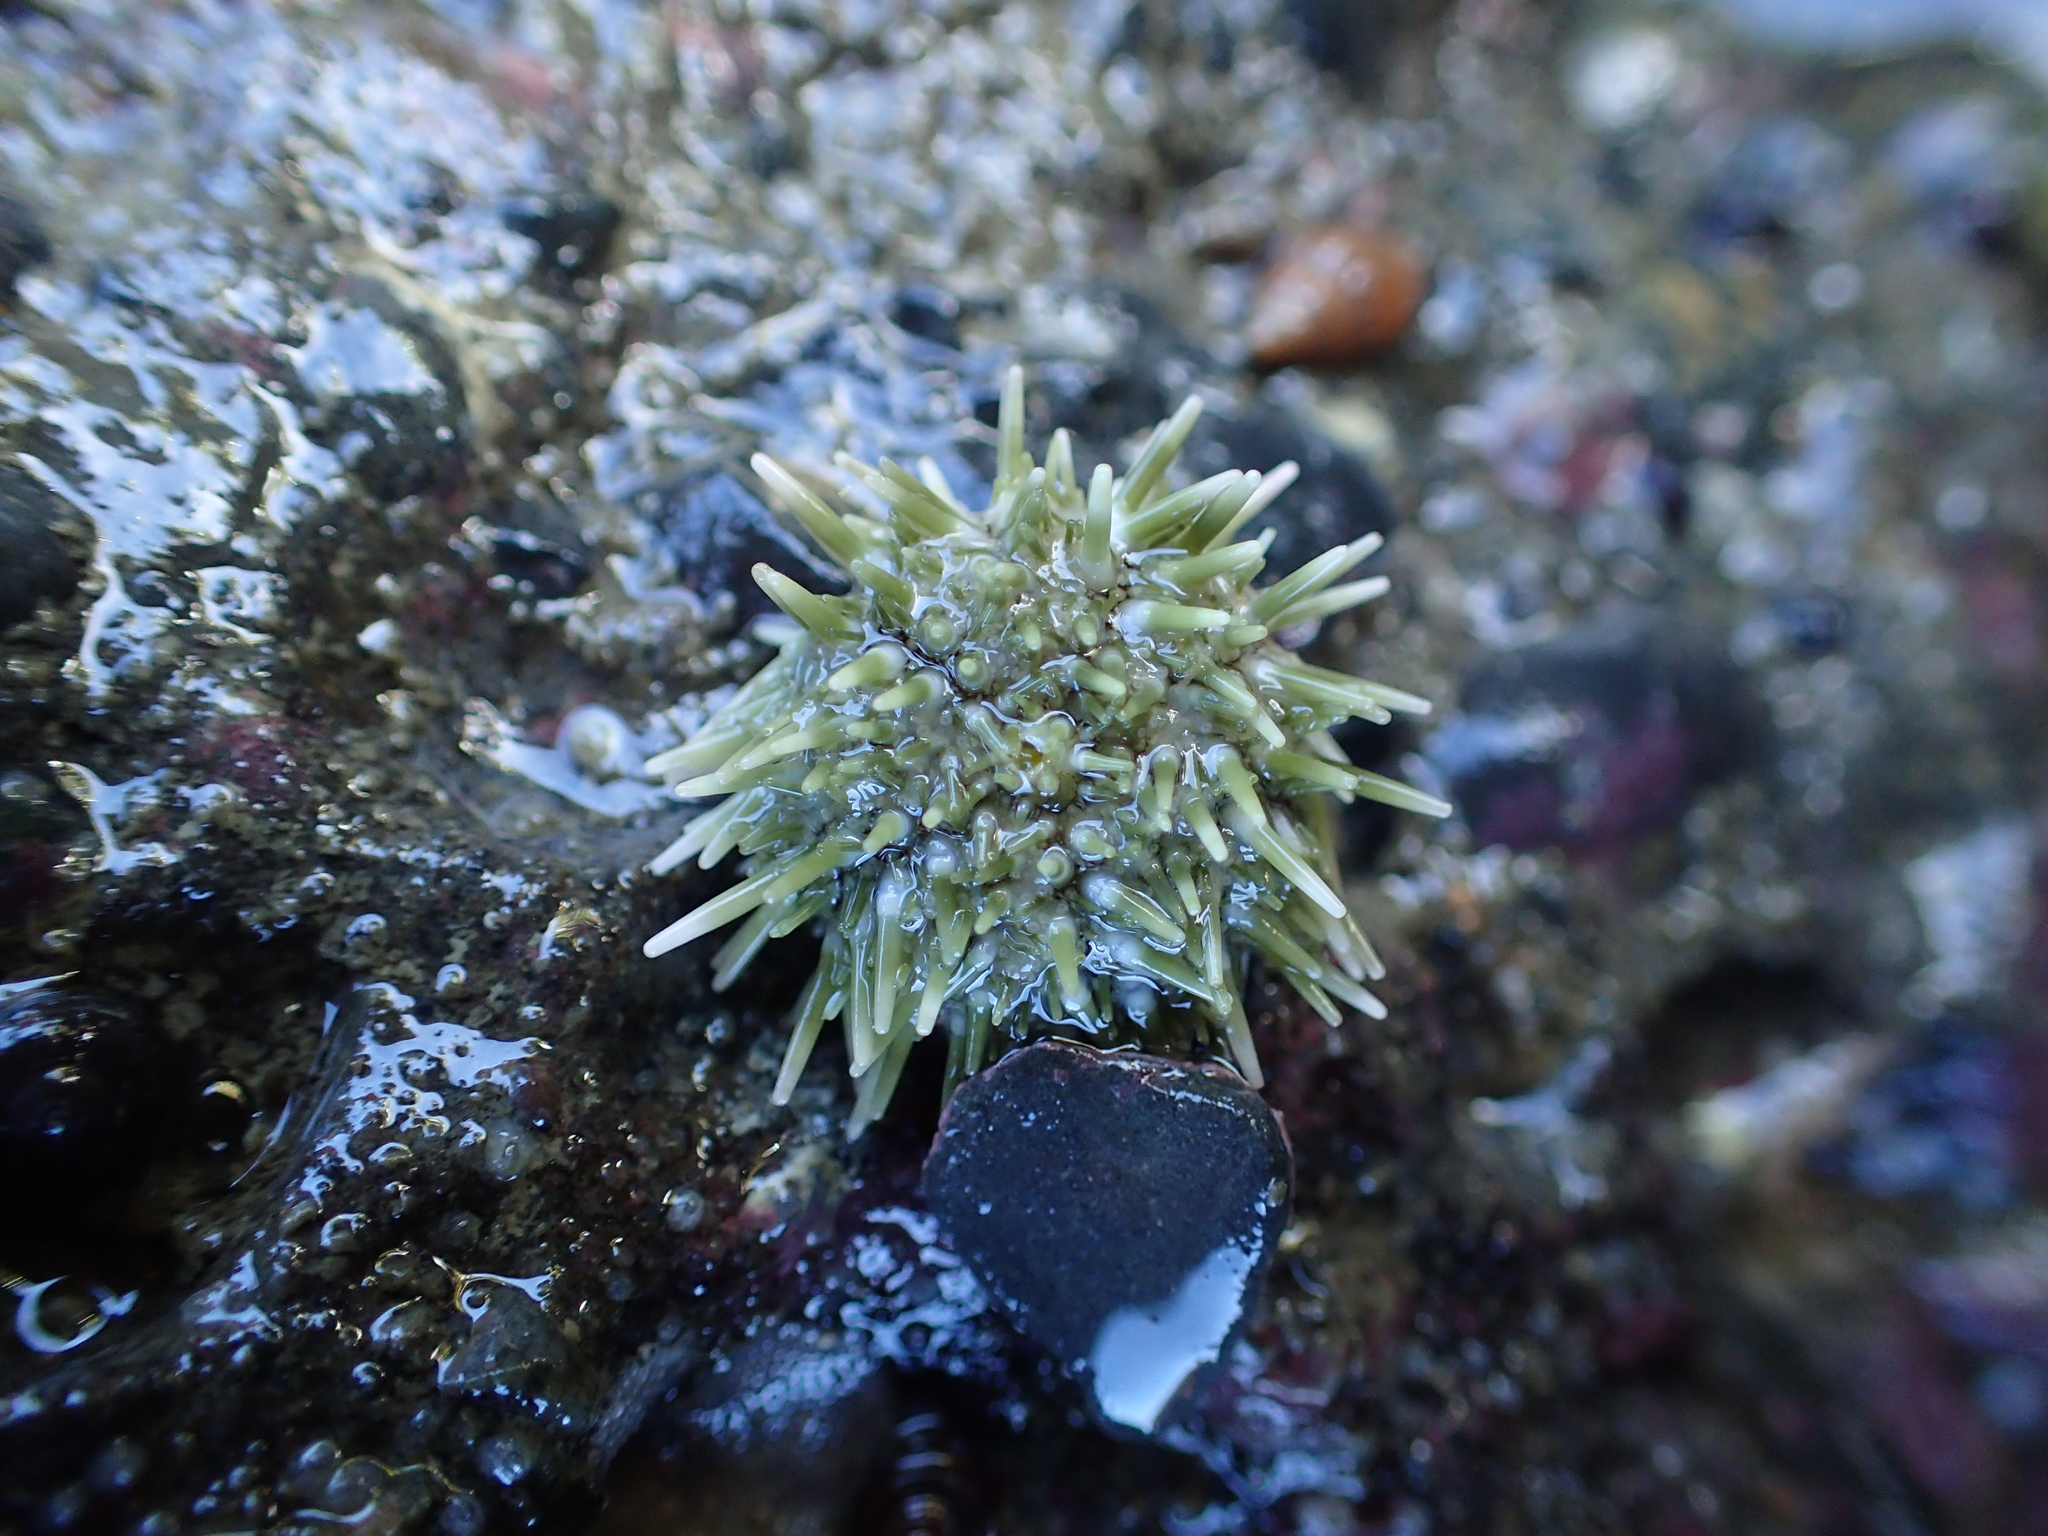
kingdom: Animalia
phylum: Echinodermata
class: Echinoidea
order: Camarodonta
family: Strongylocentrotidae
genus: Strongylocentrotus
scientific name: Strongylocentrotus purpuratus
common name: Purple sea urchin
